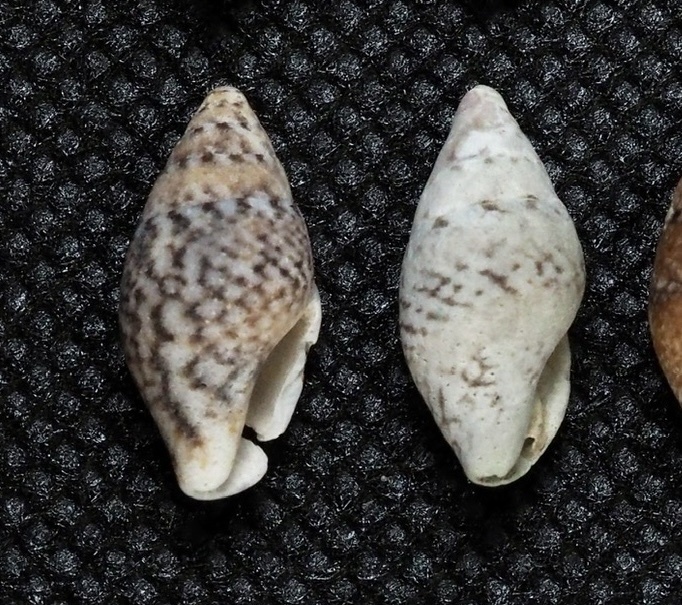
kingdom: Animalia
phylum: Mollusca
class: Gastropoda
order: Neogastropoda
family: Columbellidae
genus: Pardalinops de
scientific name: Pardalinops de Pardalinops testudinaria
